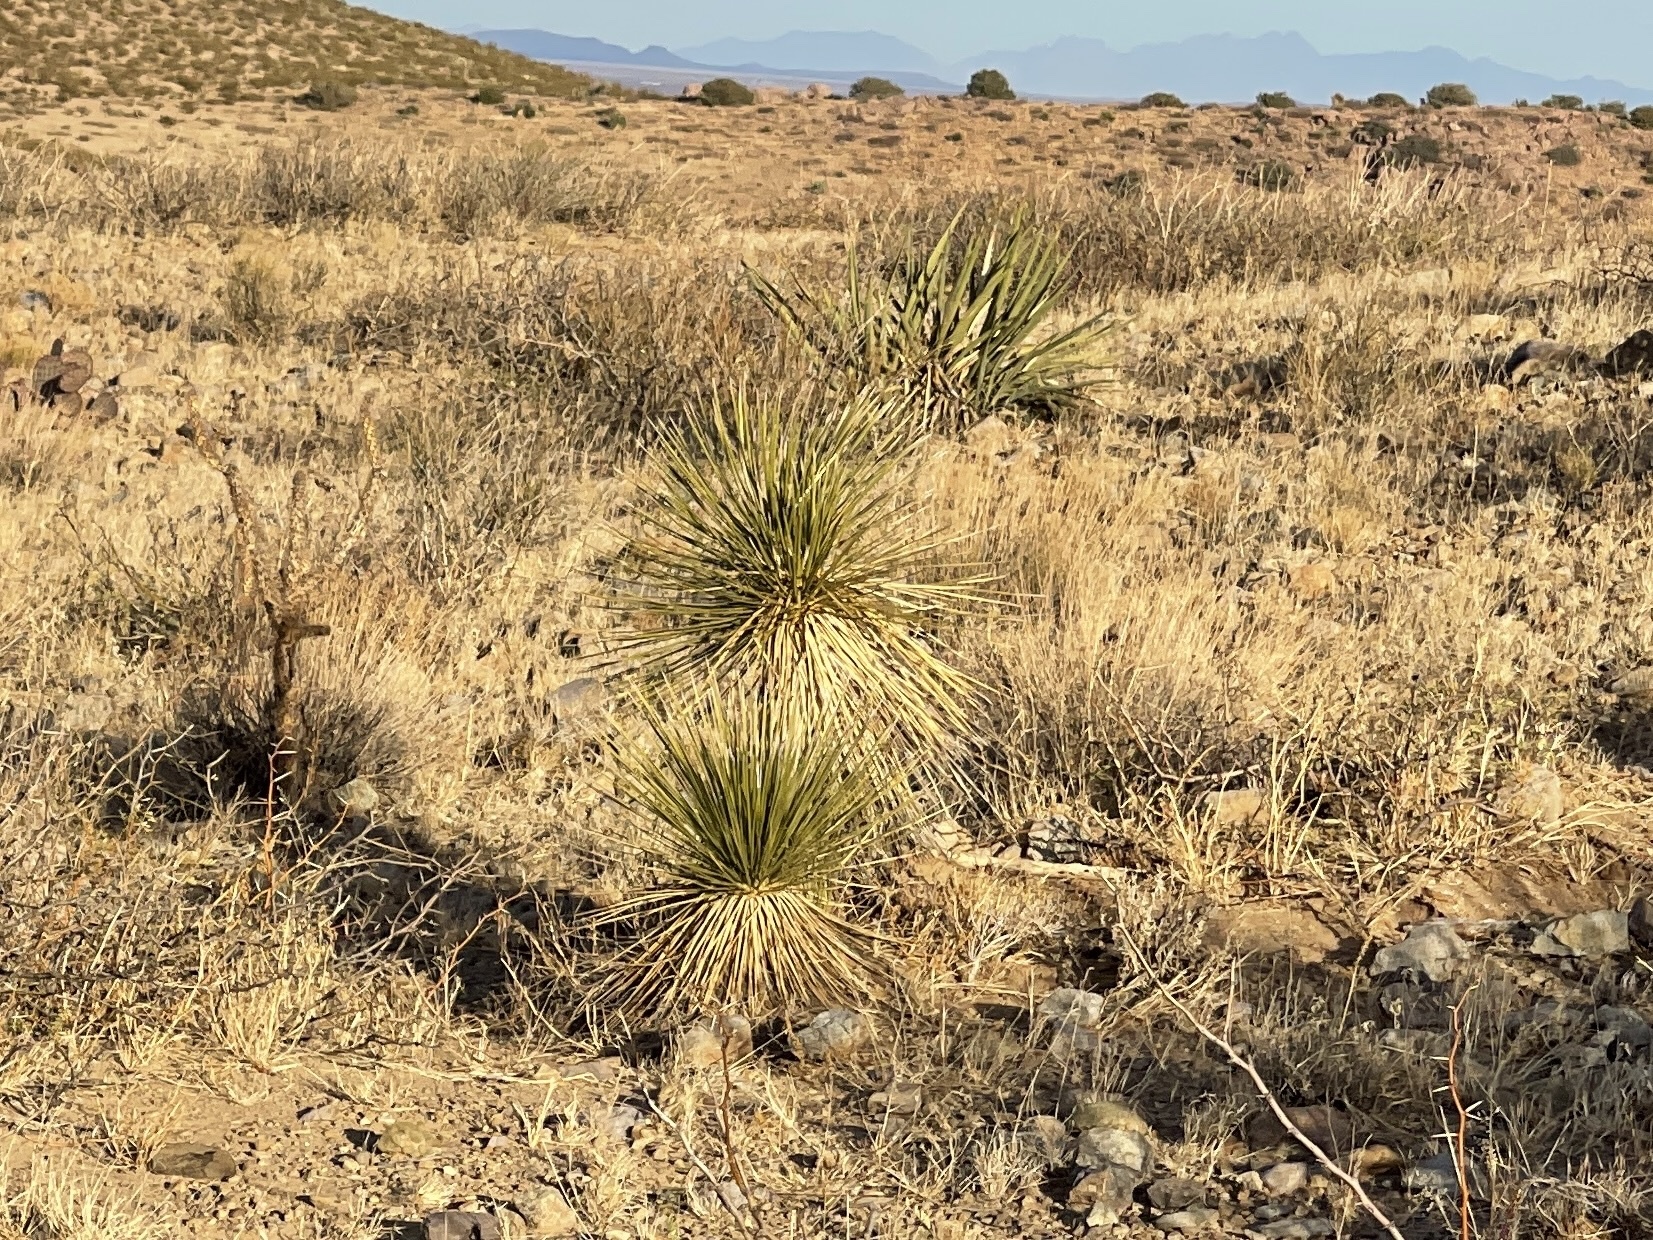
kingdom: Plantae
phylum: Tracheophyta
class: Liliopsida
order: Asparagales
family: Asparagaceae
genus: Yucca
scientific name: Yucca elata
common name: Palmella
